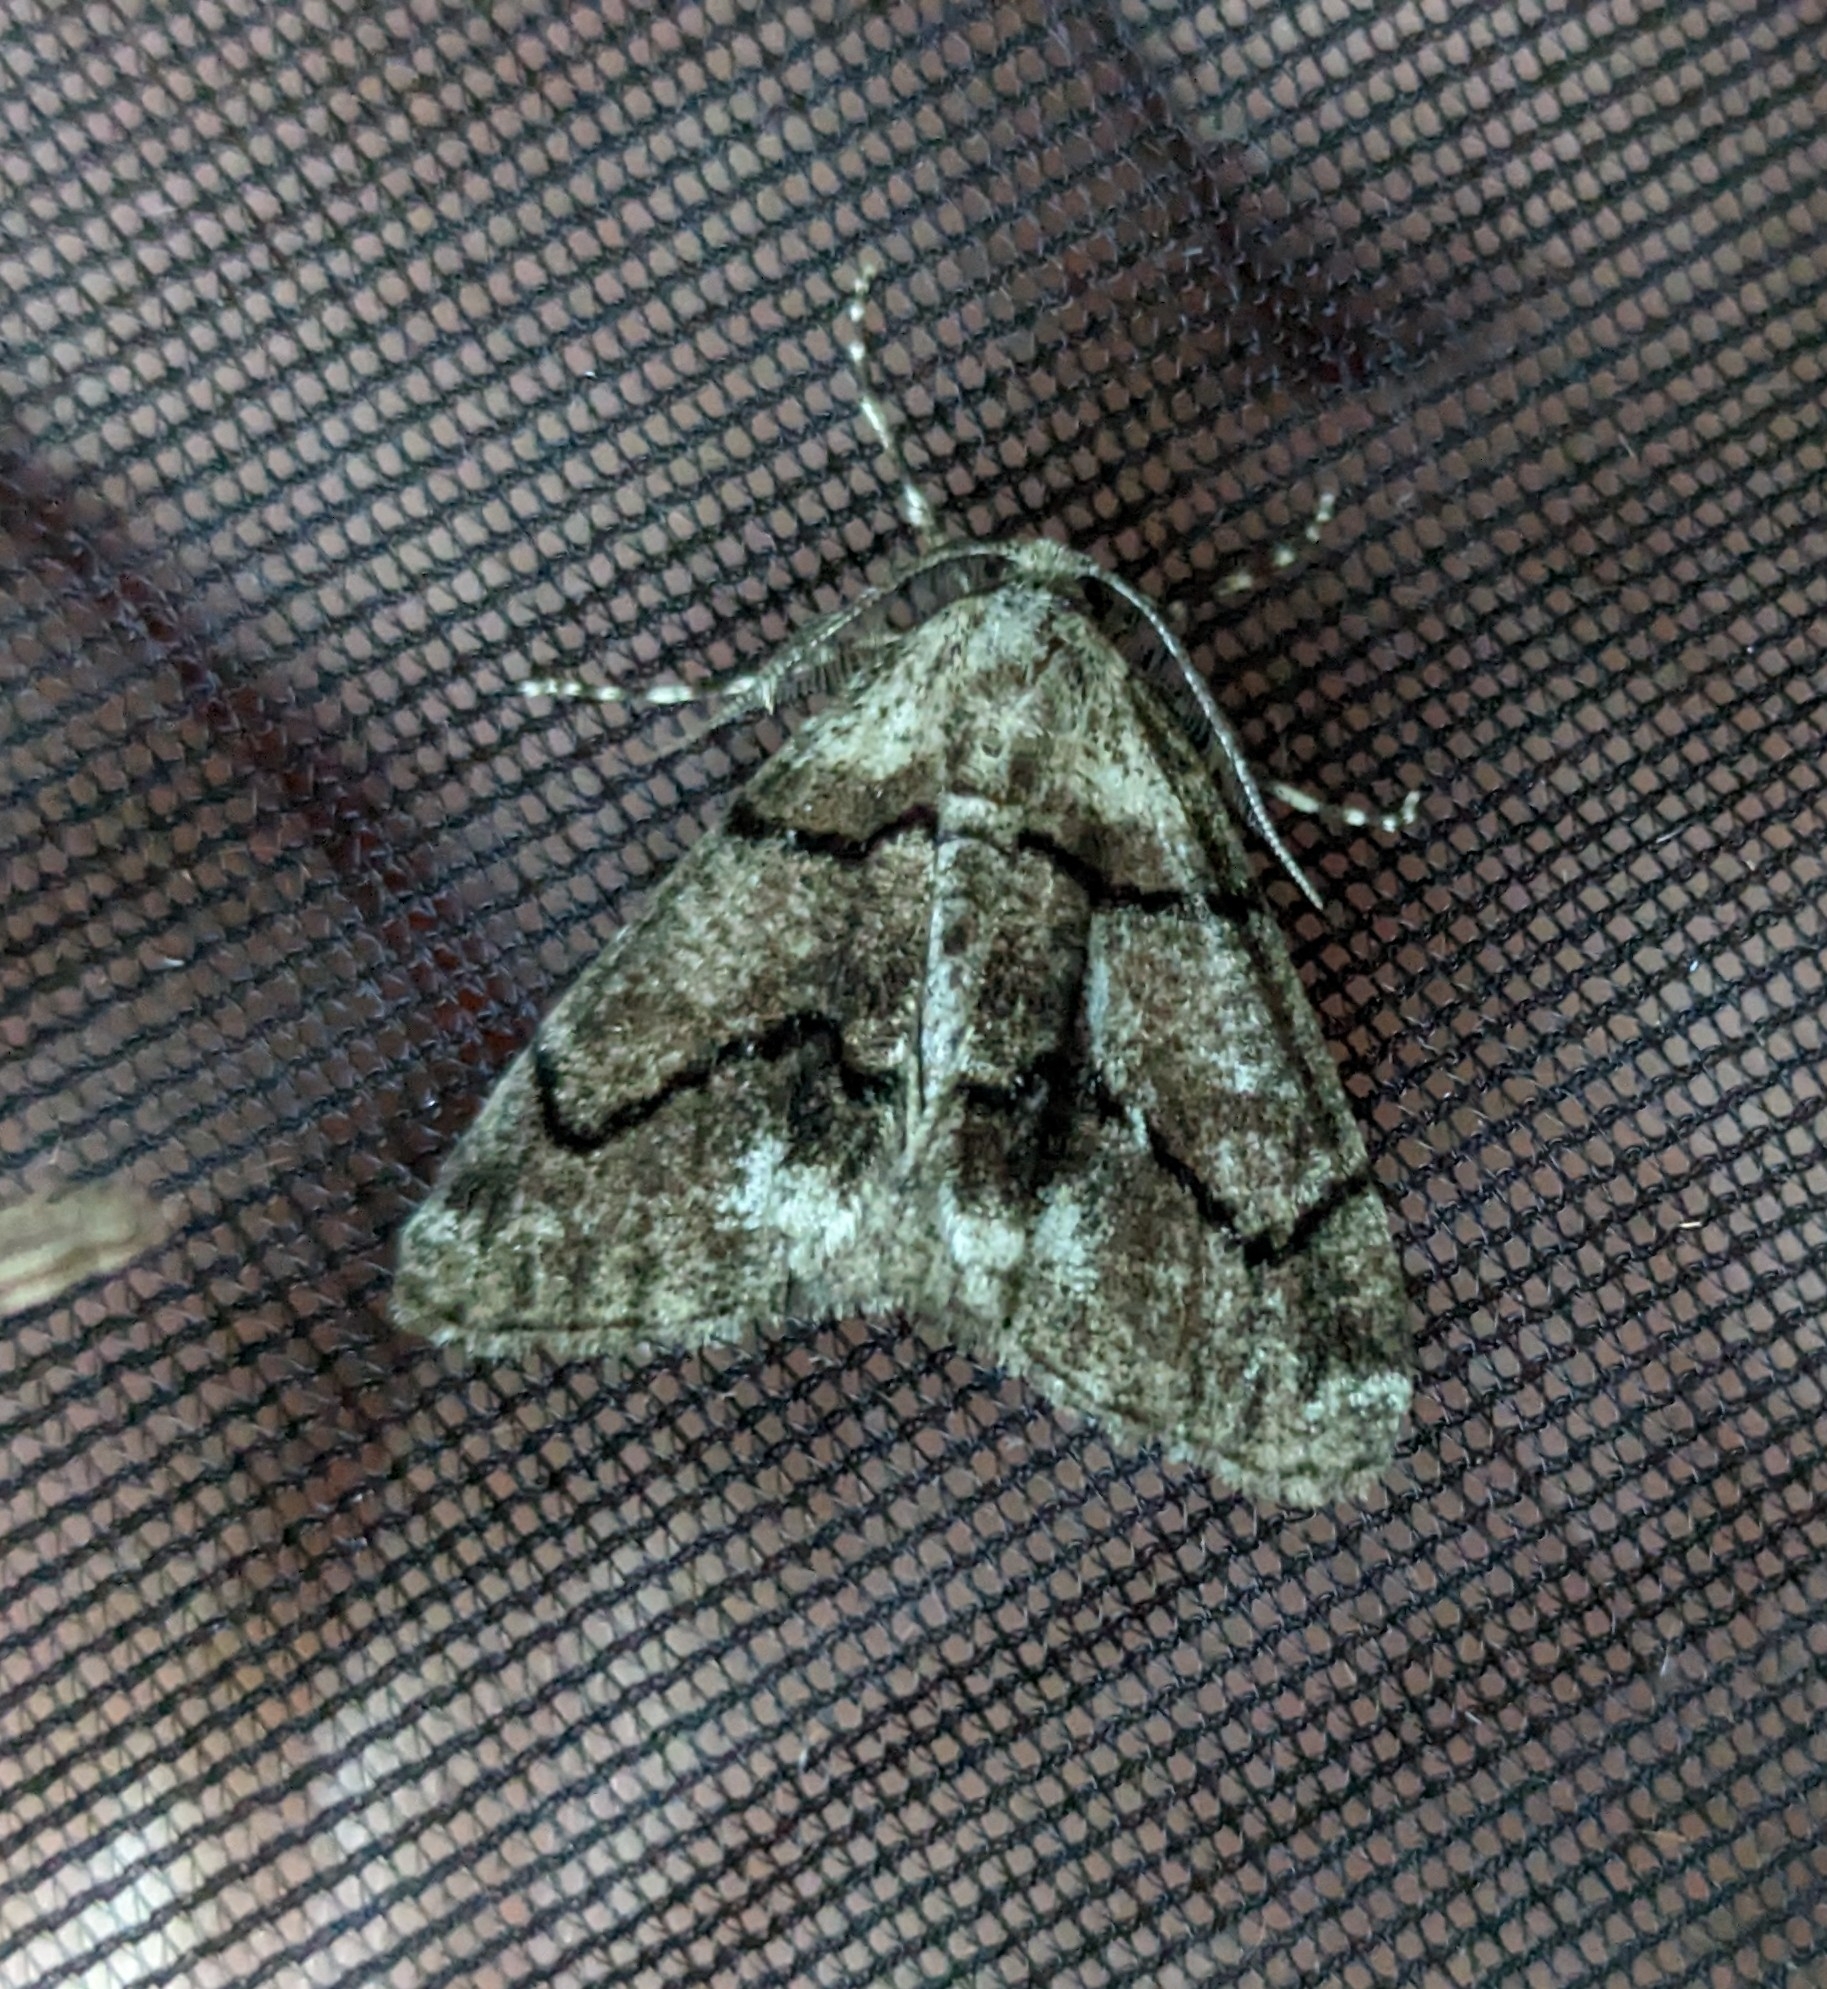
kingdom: Animalia
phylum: Arthropoda
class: Insecta
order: Lepidoptera
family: Geometridae
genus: Gabriola
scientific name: Gabriola dyari
